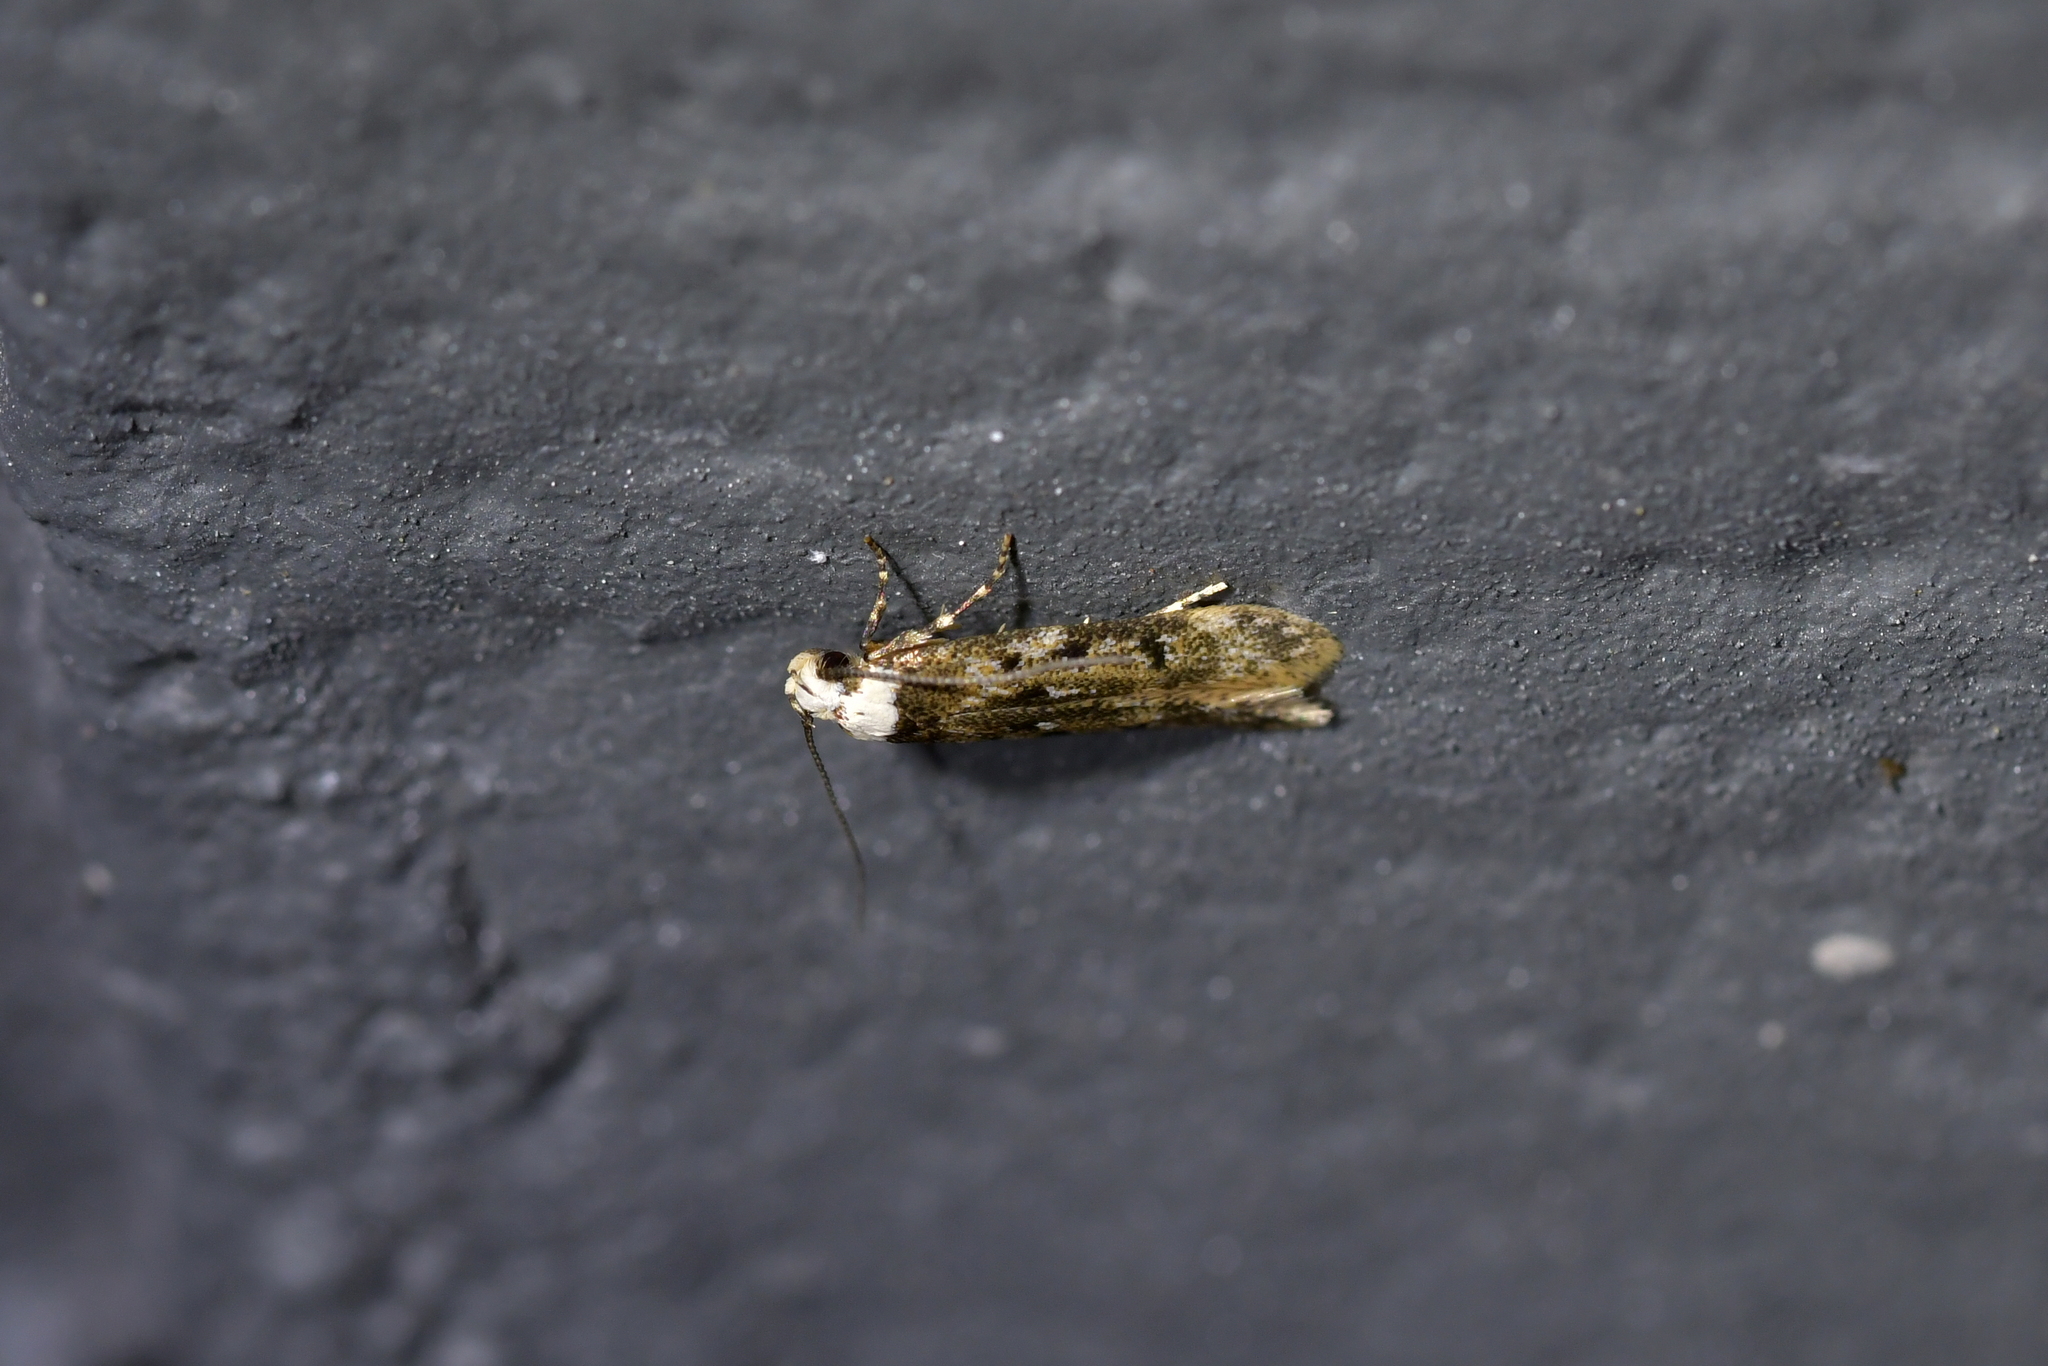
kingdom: Animalia
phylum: Arthropoda
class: Insecta
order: Lepidoptera
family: Oecophoridae
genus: Endrosis
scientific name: Endrosis sarcitrella
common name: White-shouldered house moth
